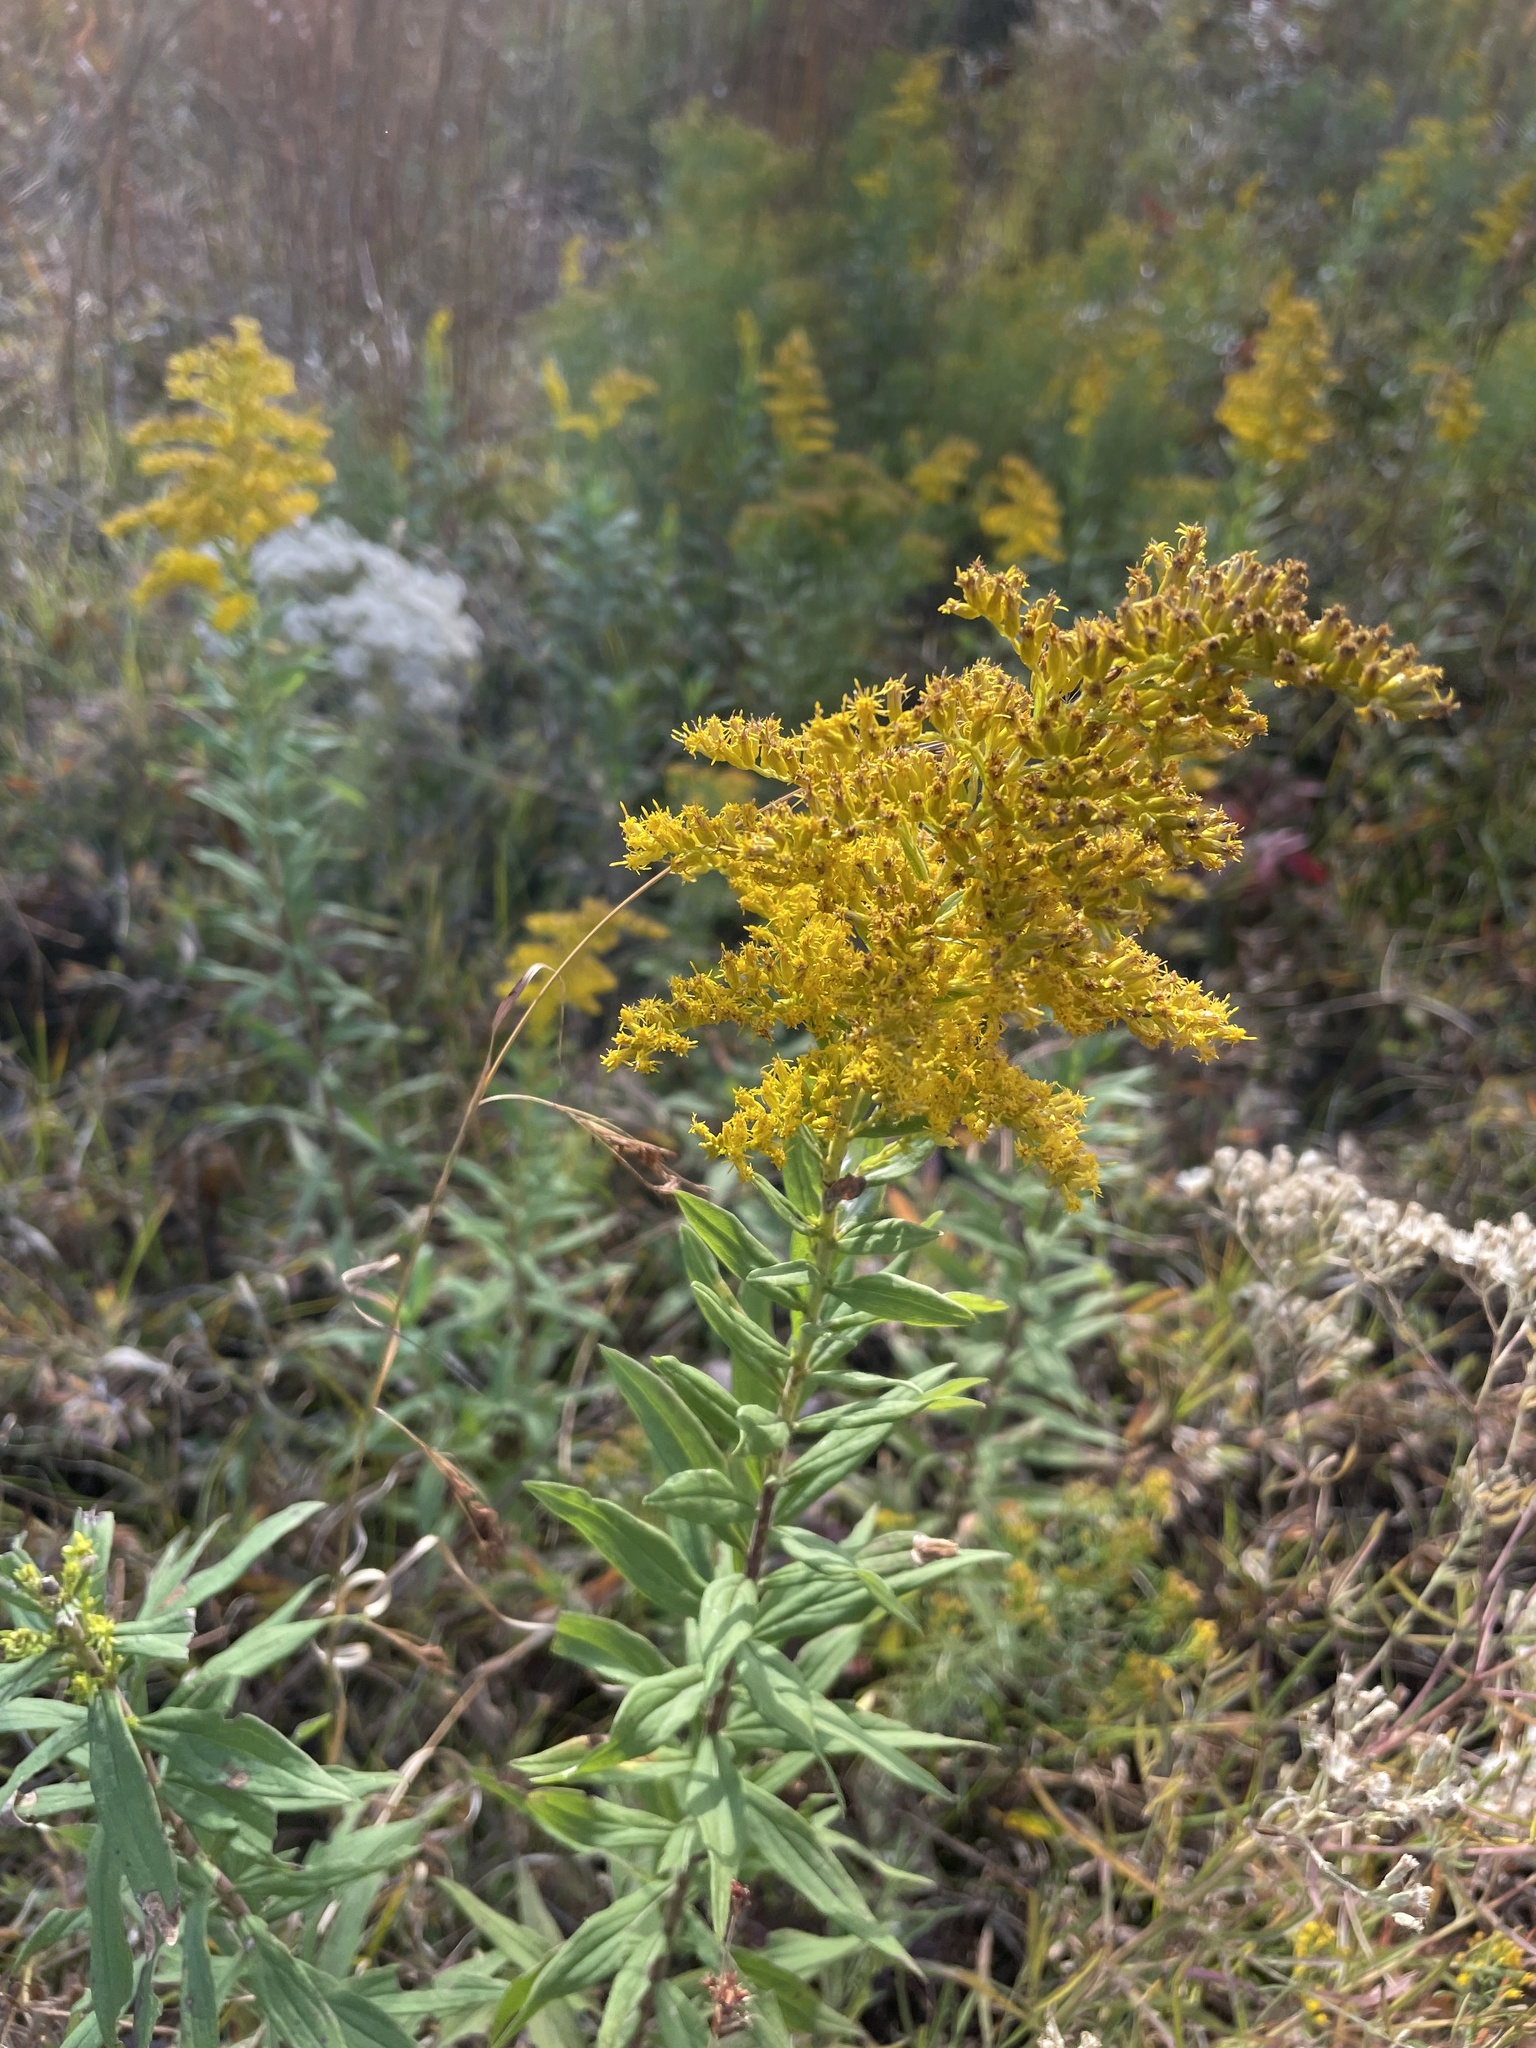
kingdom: Plantae
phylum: Tracheophyta
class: Magnoliopsida
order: Asterales
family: Asteraceae
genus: Solidago
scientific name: Solidago altissima
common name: Late goldenrod
